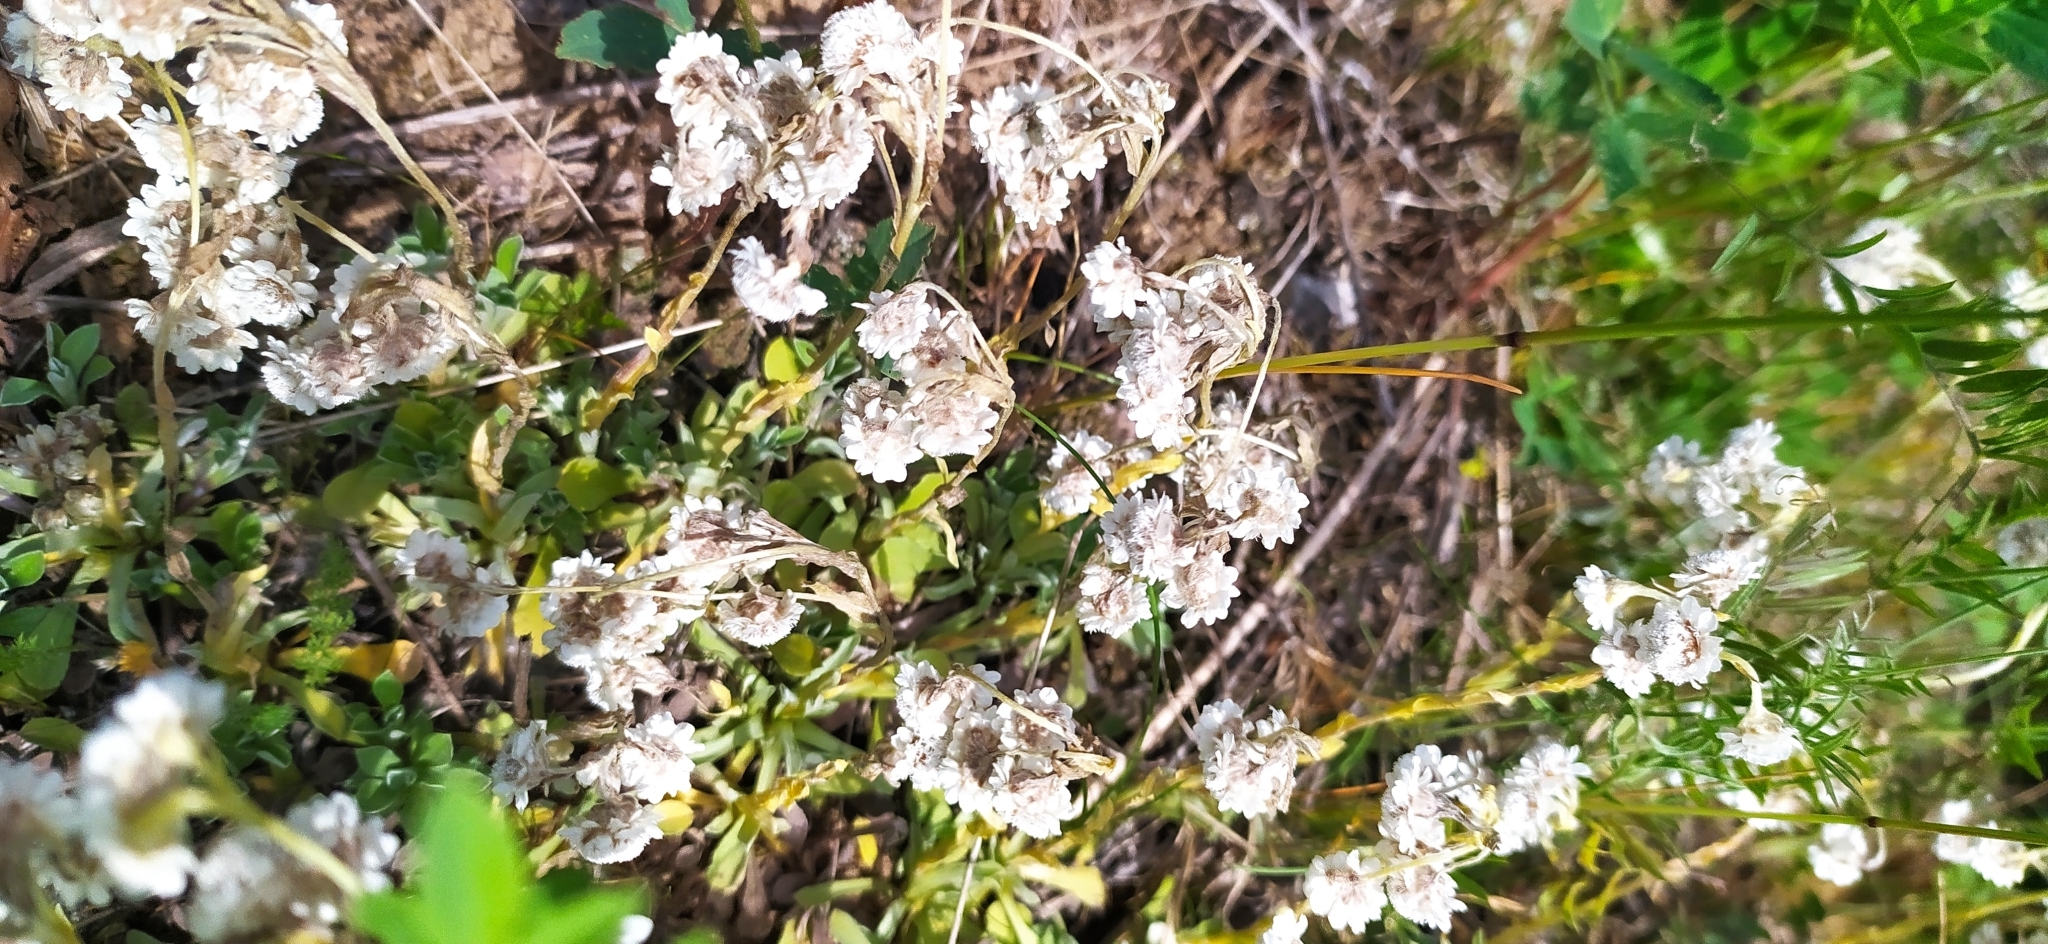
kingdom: Plantae
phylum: Tracheophyta
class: Magnoliopsida
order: Asterales
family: Asteraceae
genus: Antennaria
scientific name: Antennaria dioica
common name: Mountain everlasting
